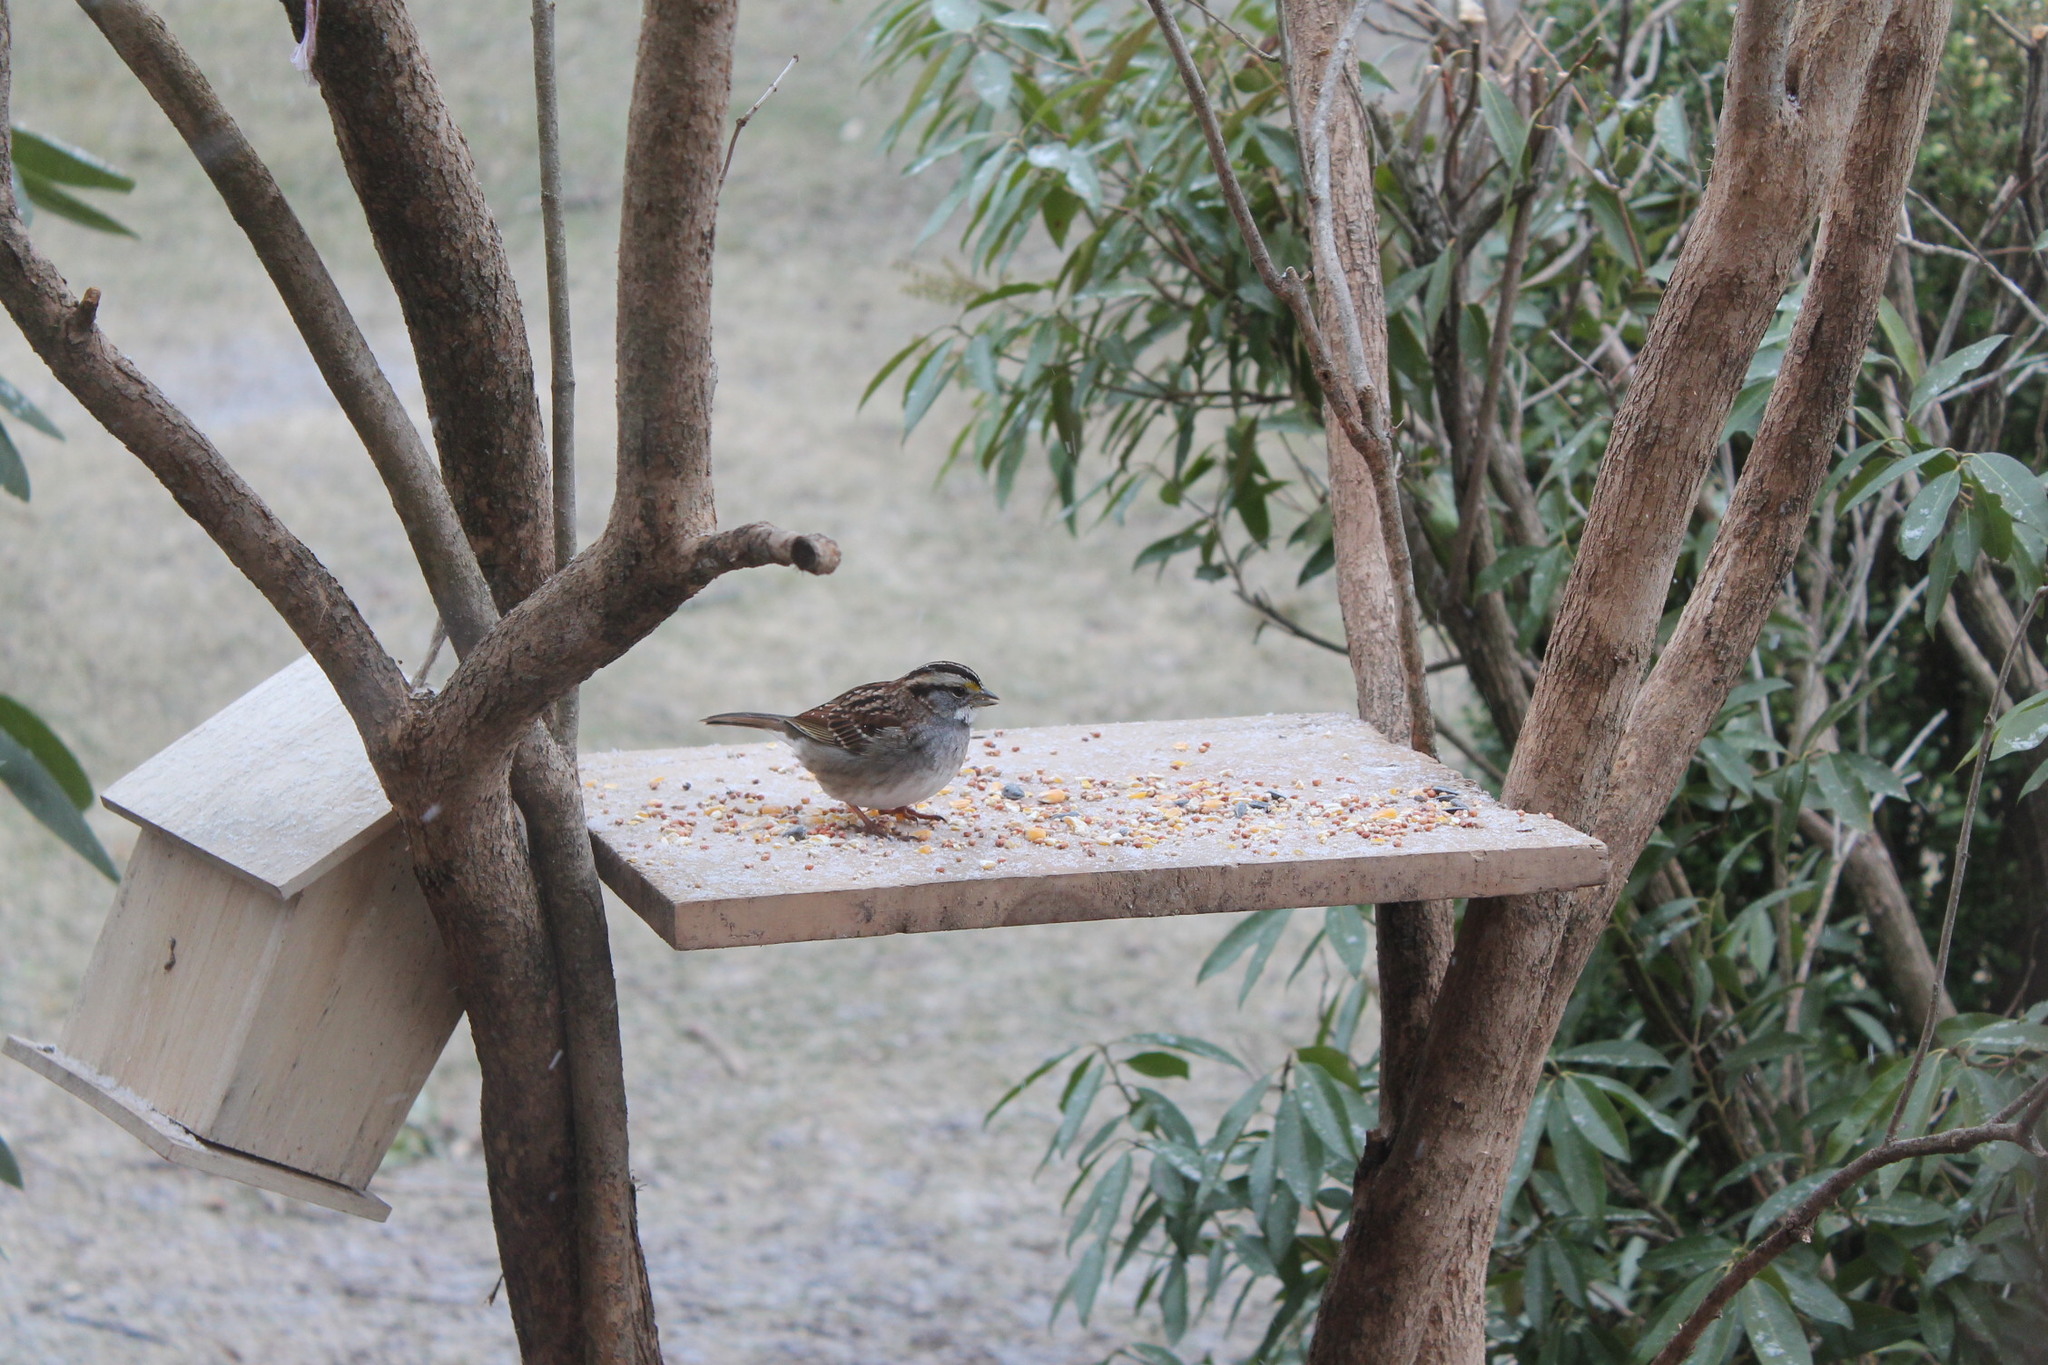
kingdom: Animalia
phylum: Chordata
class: Aves
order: Passeriformes
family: Passerellidae
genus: Zonotrichia
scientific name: Zonotrichia albicollis
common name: White-throated sparrow
